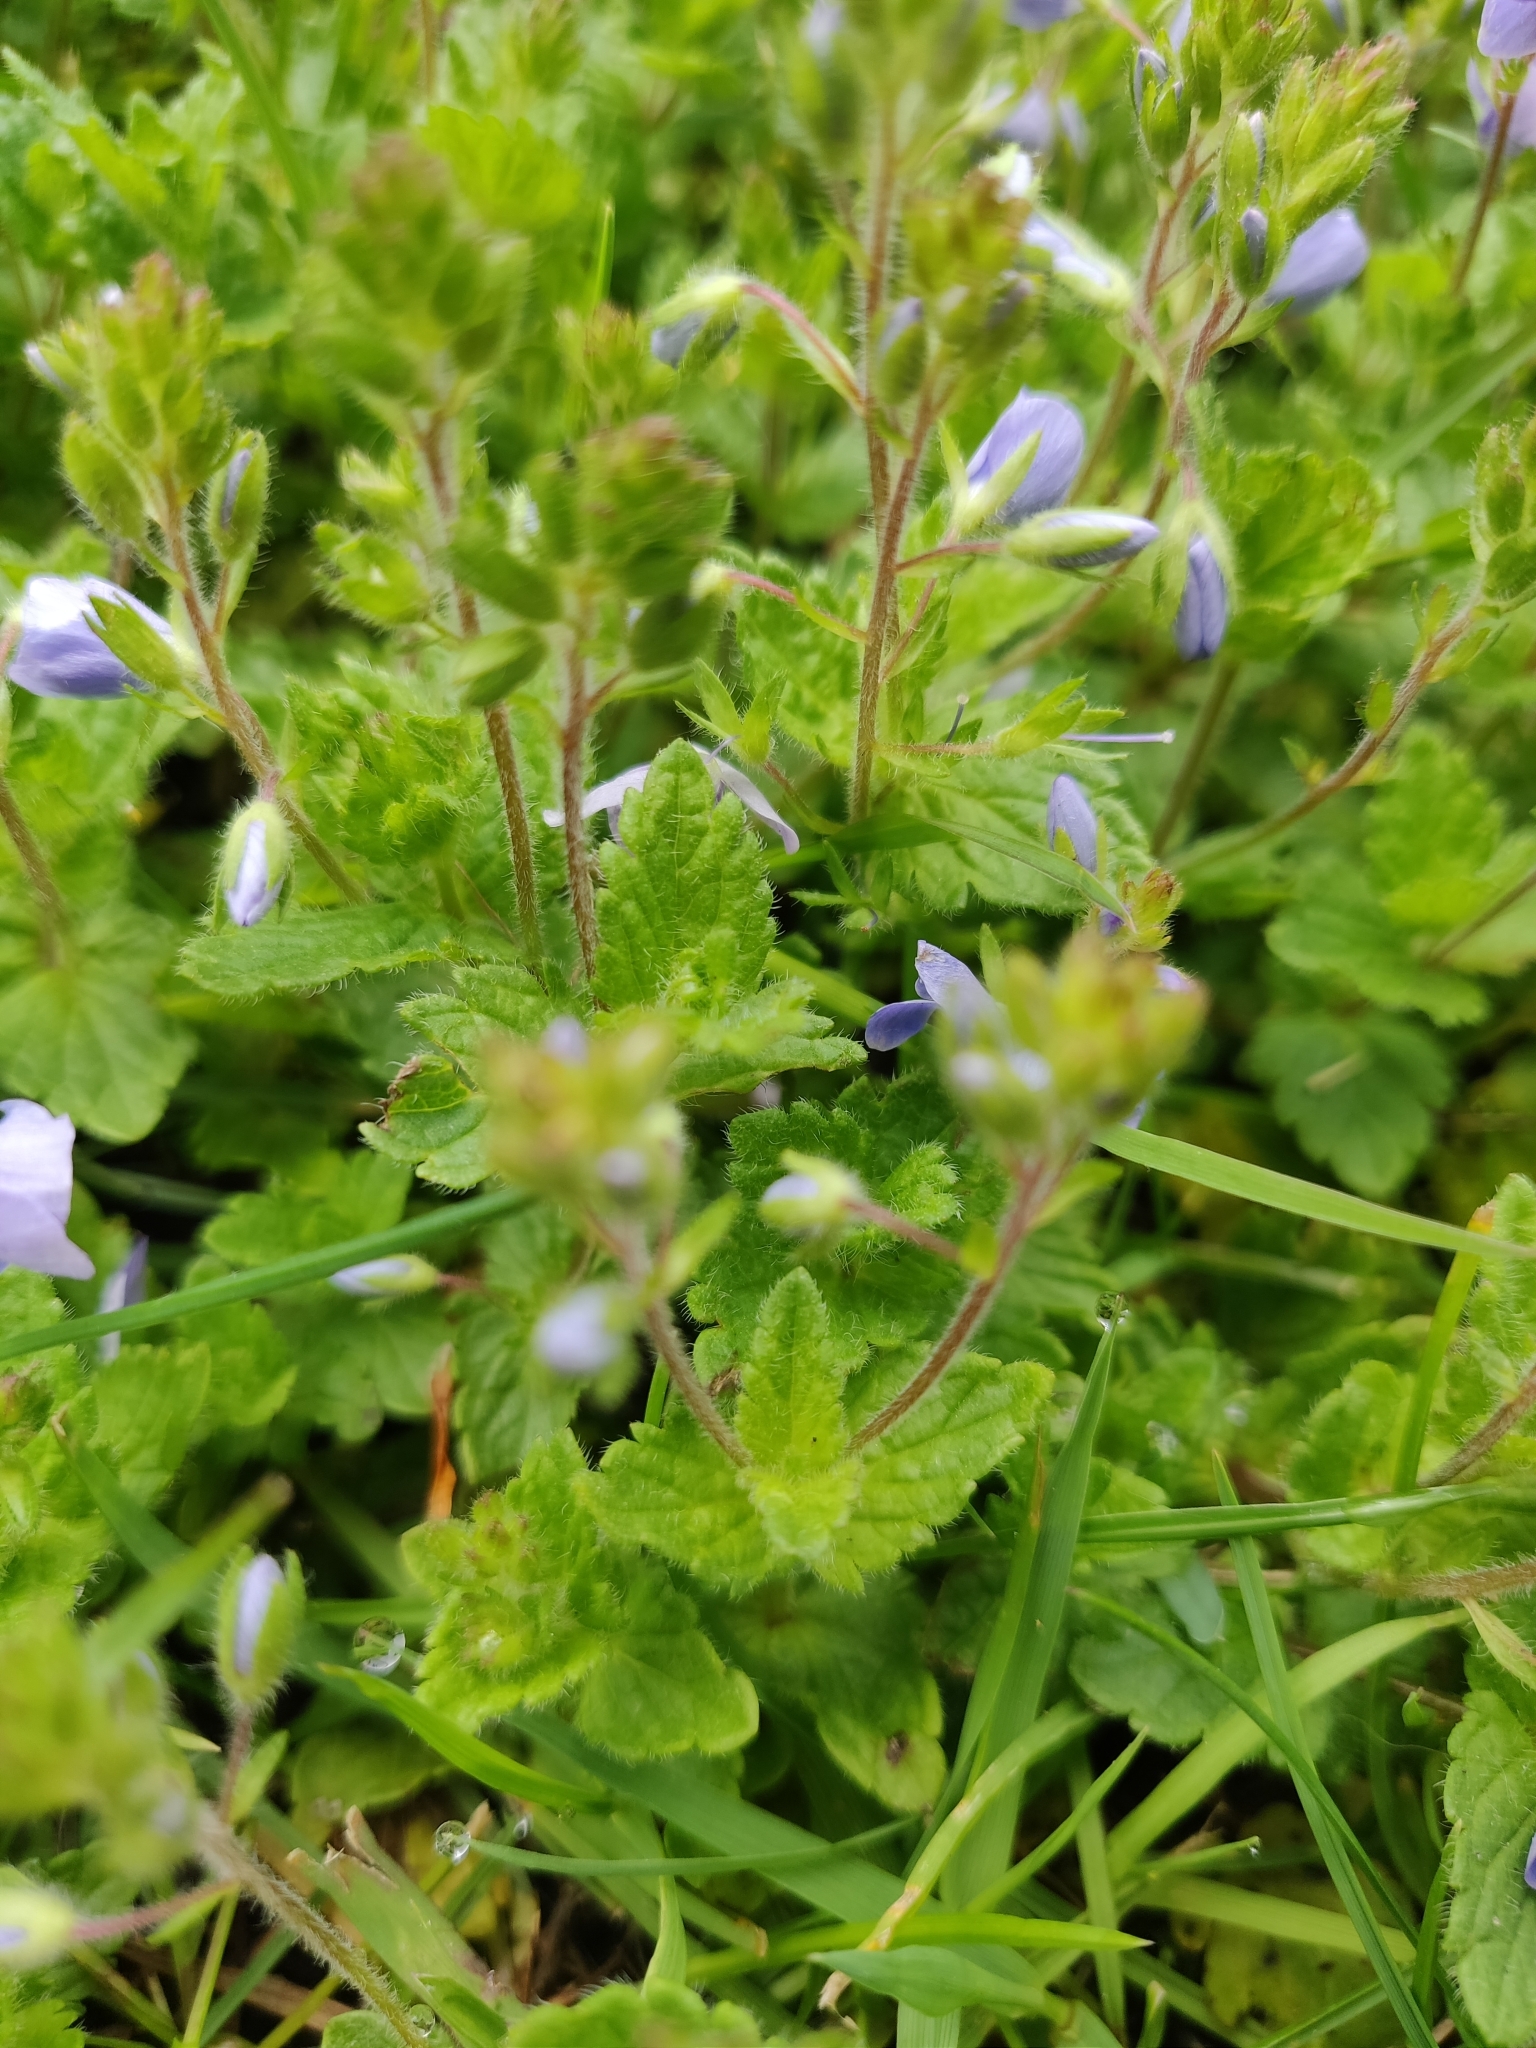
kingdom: Plantae
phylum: Tracheophyta
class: Magnoliopsida
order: Lamiales
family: Plantaginaceae
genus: Veronica
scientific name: Veronica chamaedrys
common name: Germander speedwell
